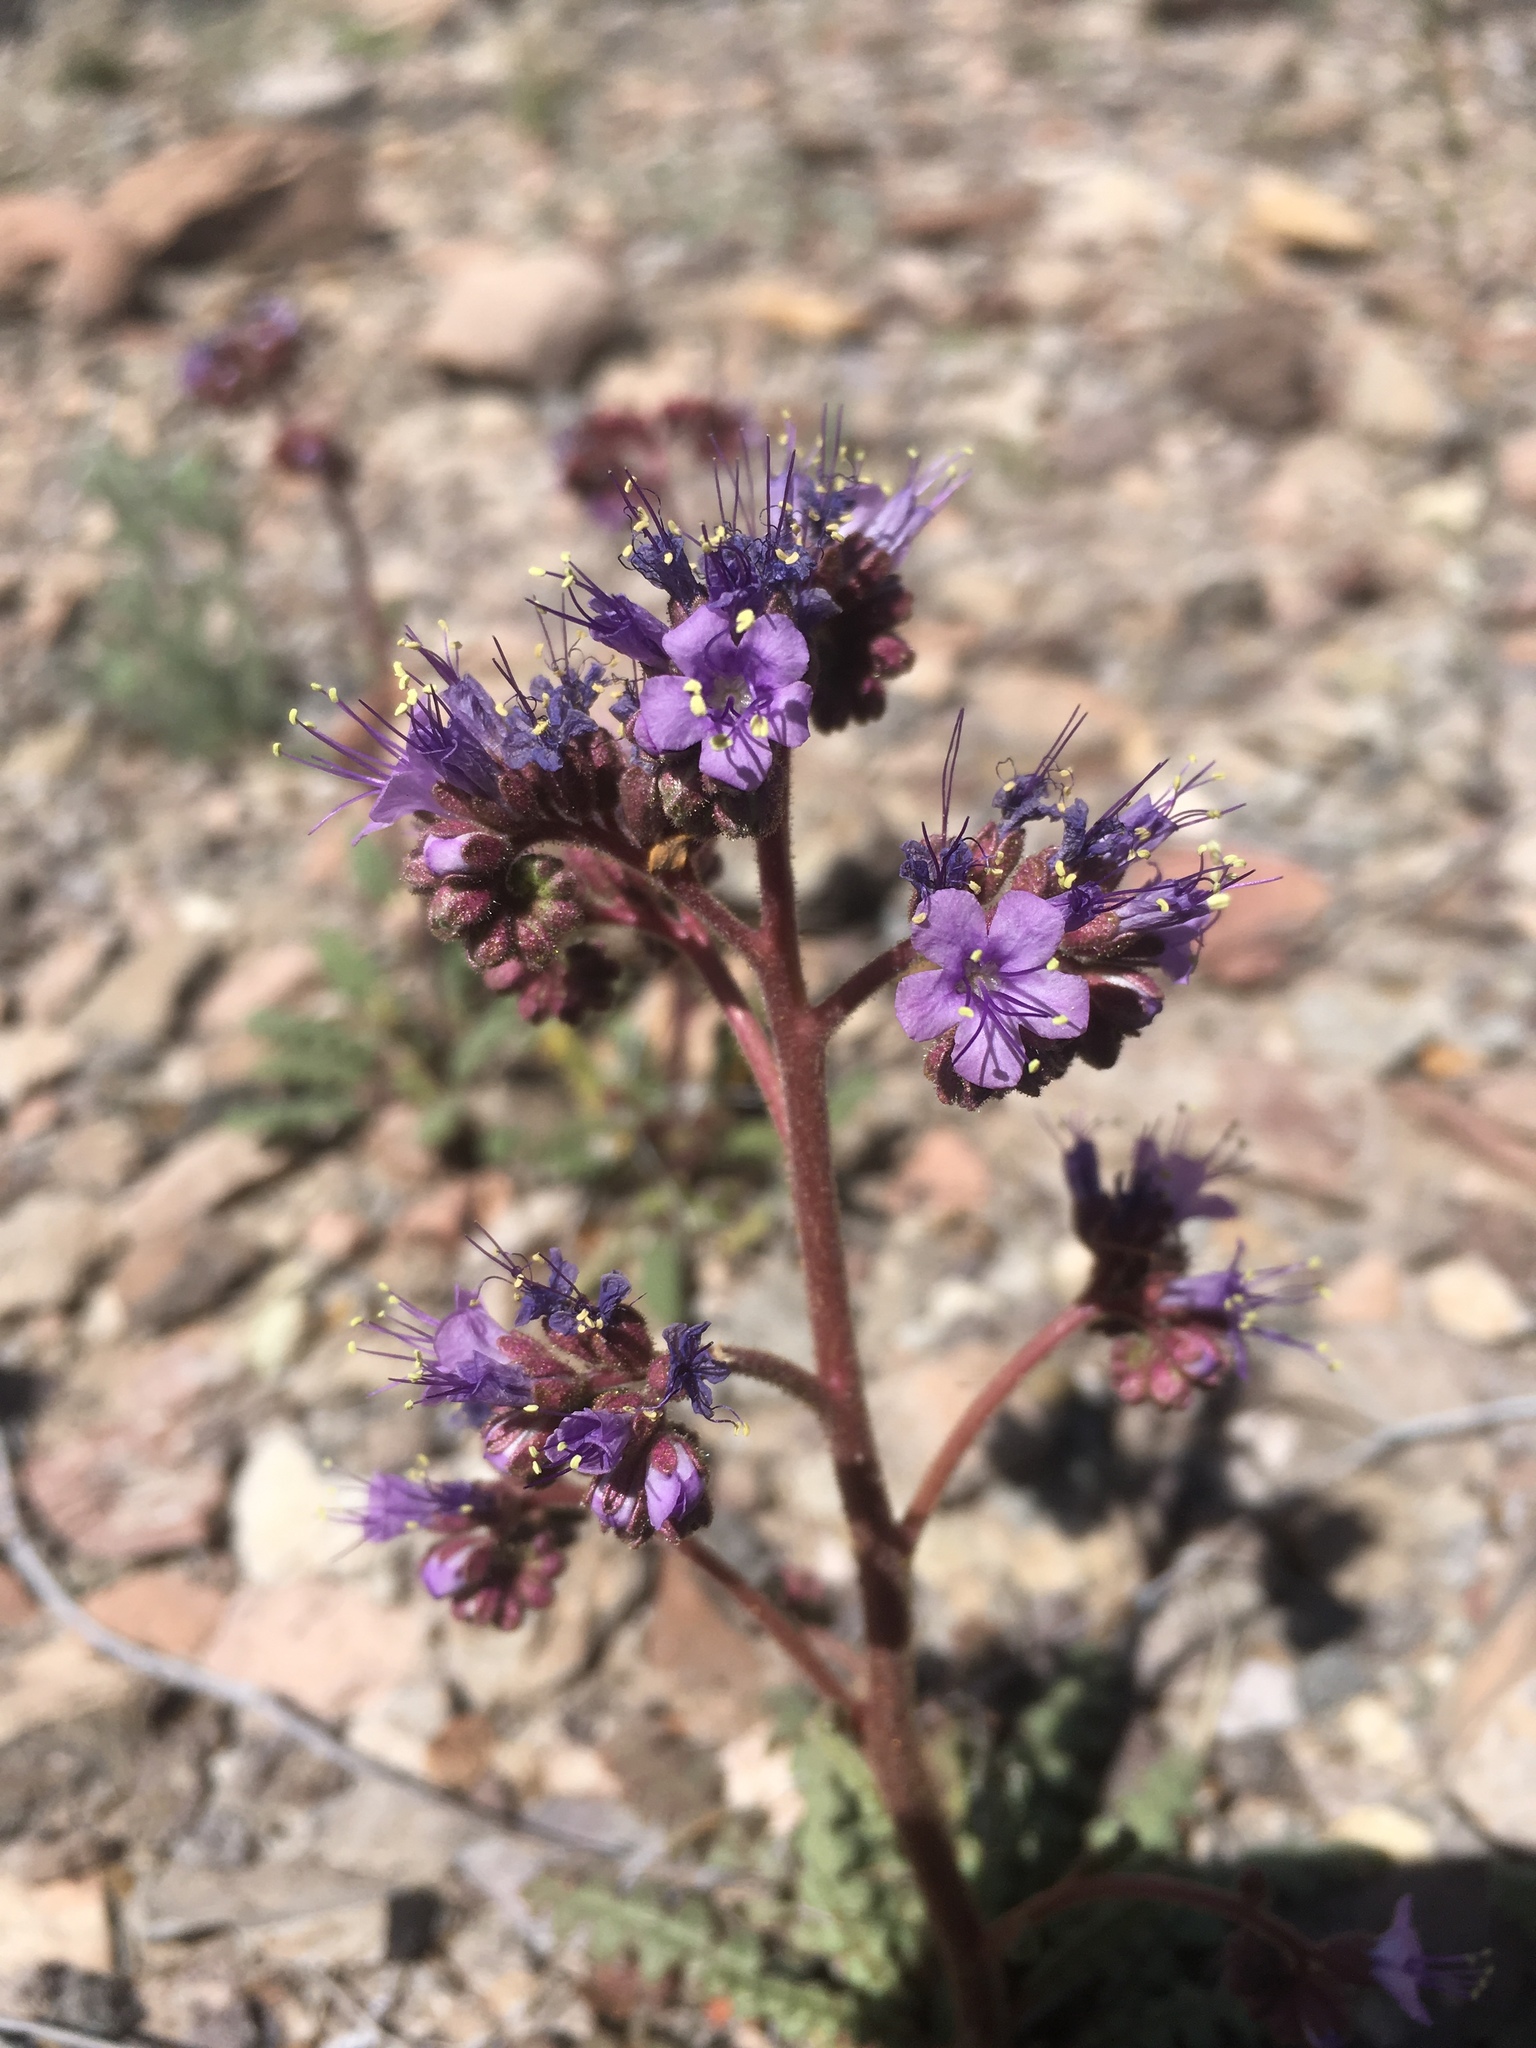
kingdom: Plantae
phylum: Tracheophyta
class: Magnoliopsida
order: Boraginales
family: Hydrophyllaceae
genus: Phacelia
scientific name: Phacelia crenulata
